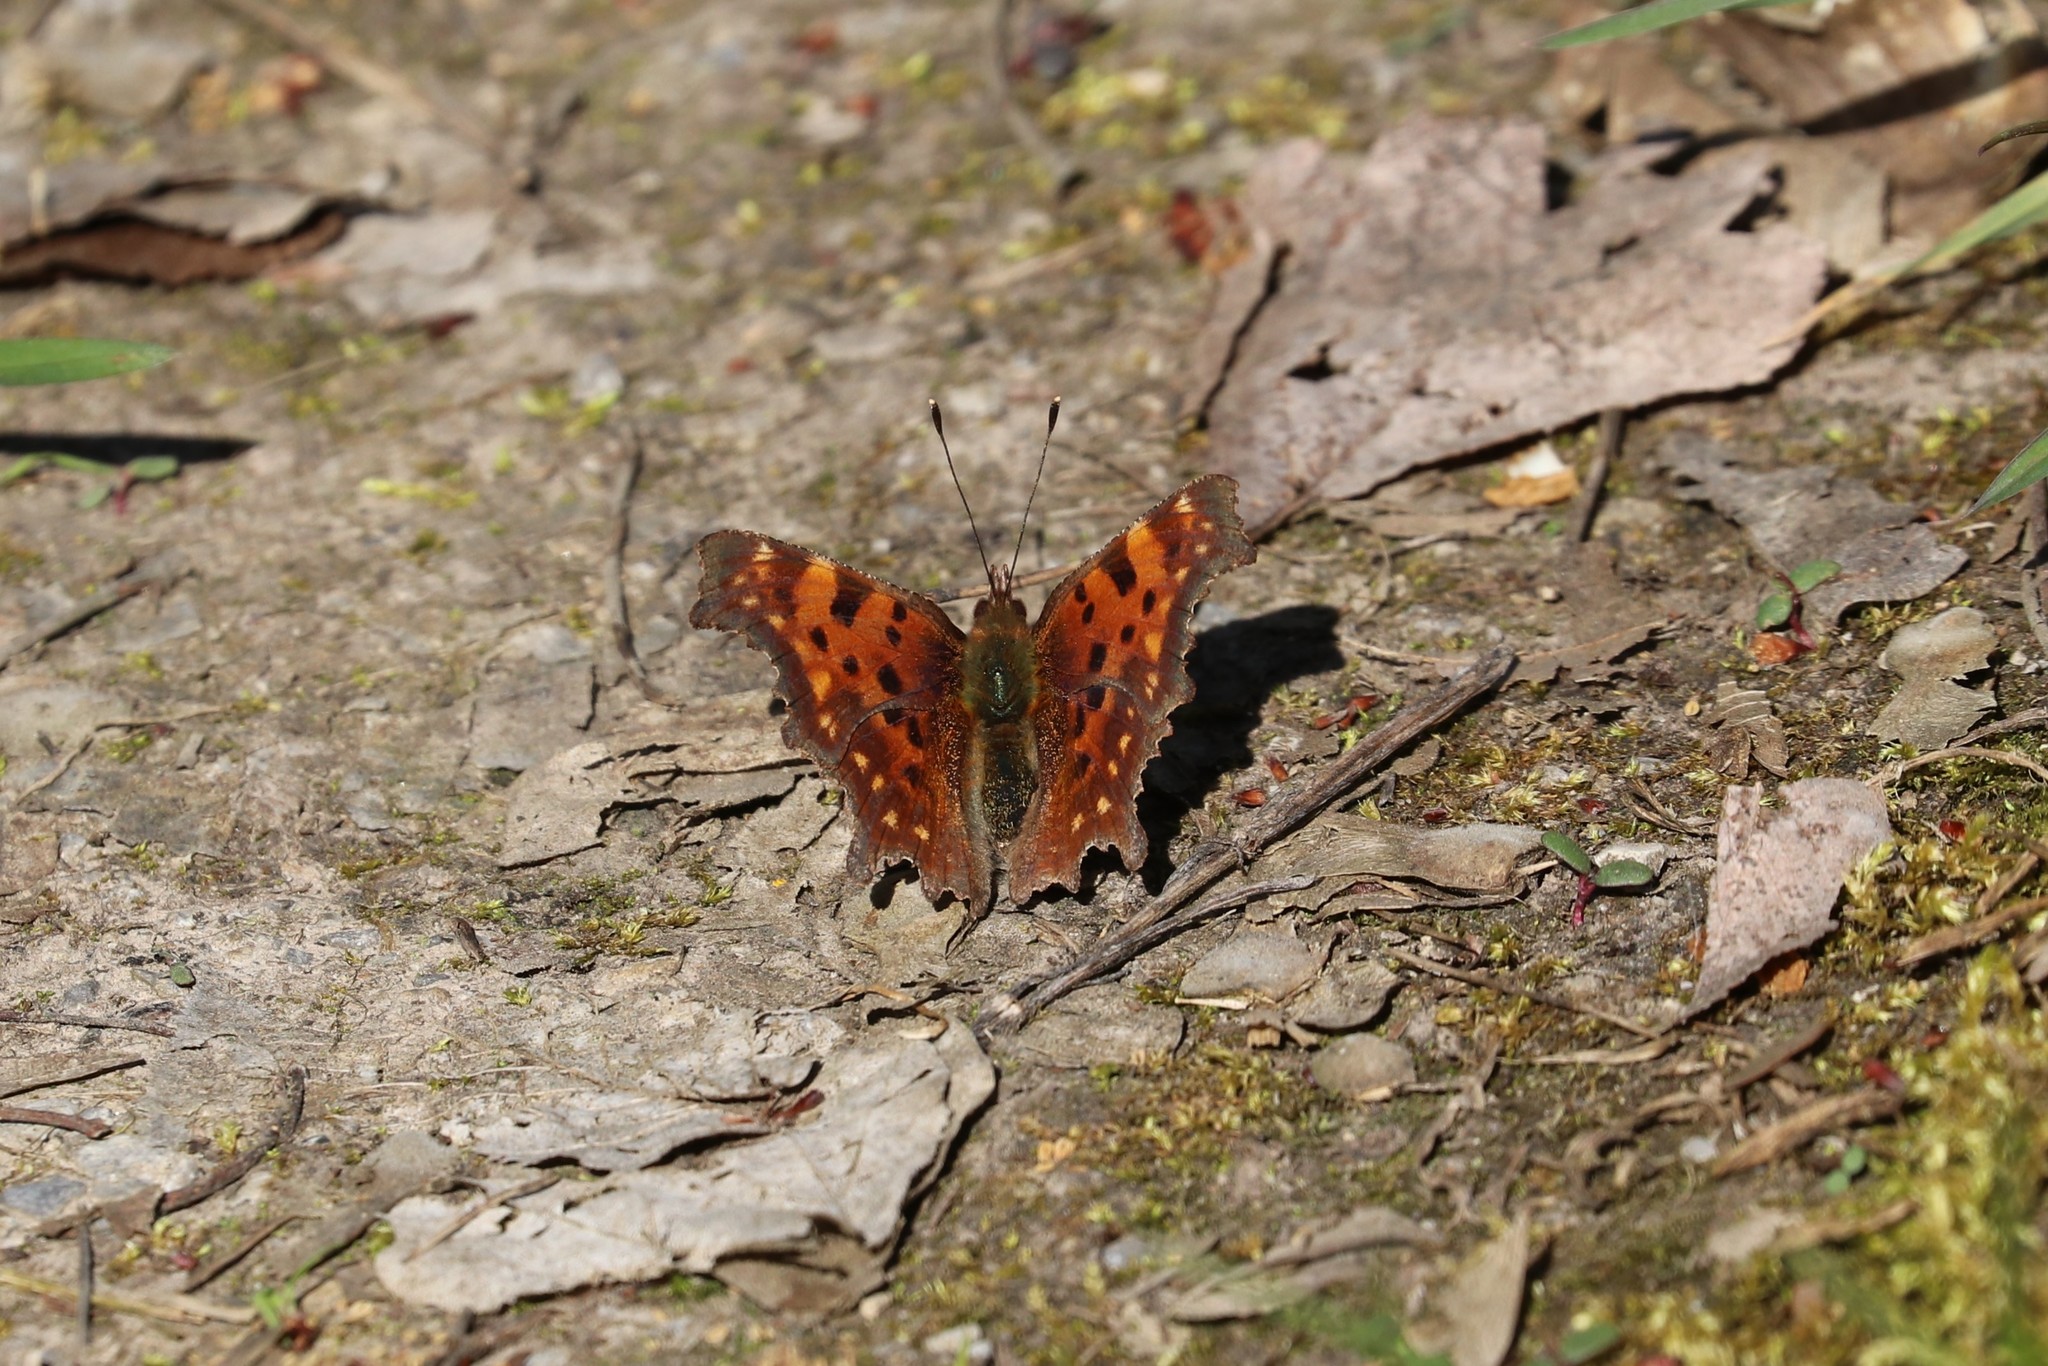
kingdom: Animalia
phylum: Arthropoda
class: Insecta
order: Lepidoptera
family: Nymphalidae
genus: Polygonia
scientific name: Polygonia c-album
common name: Comma
